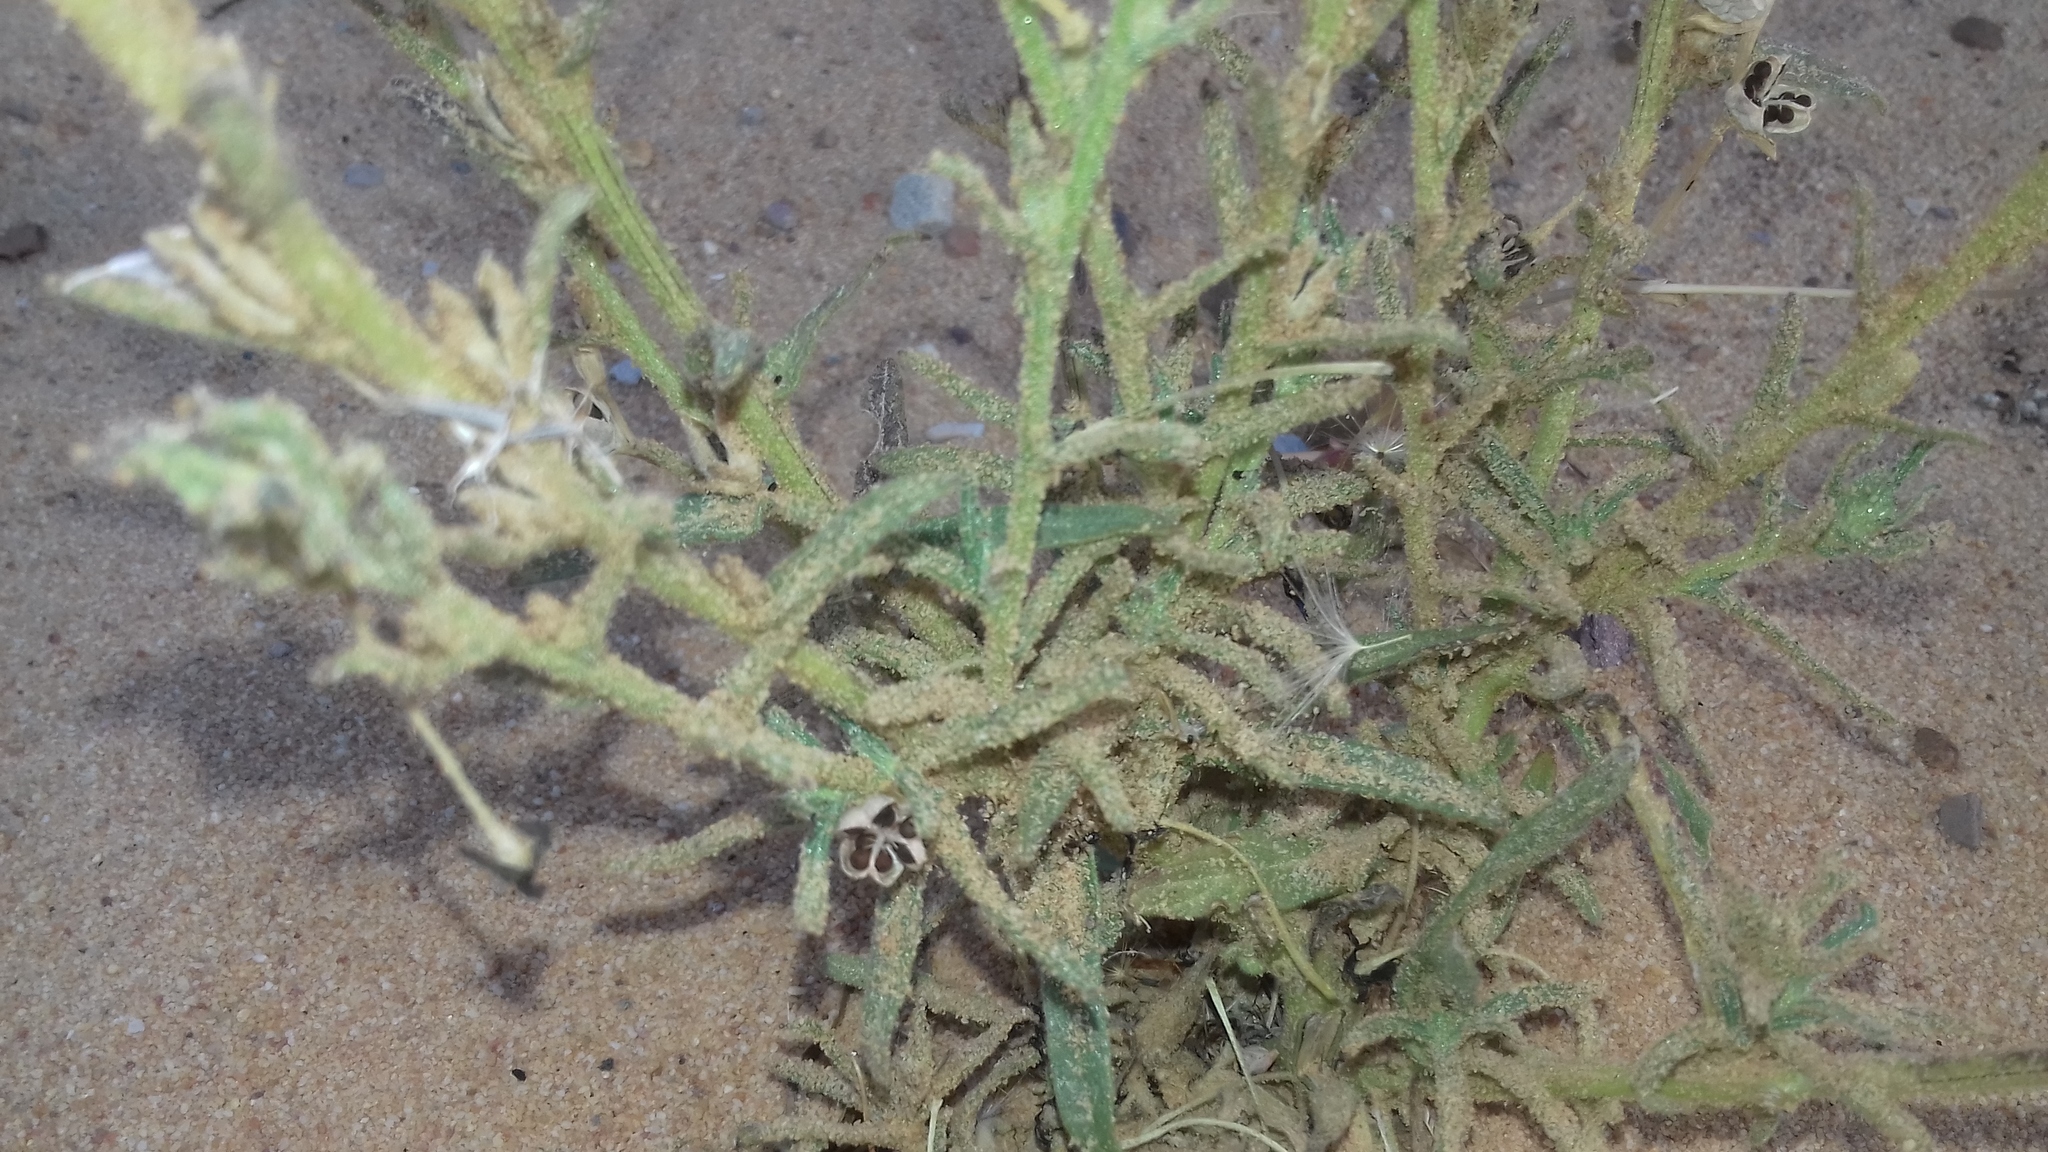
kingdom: Plantae
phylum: Tracheophyta
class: Magnoliopsida
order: Lamiales
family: Scrophulariaceae
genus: Lyperia
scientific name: Lyperia tristis
